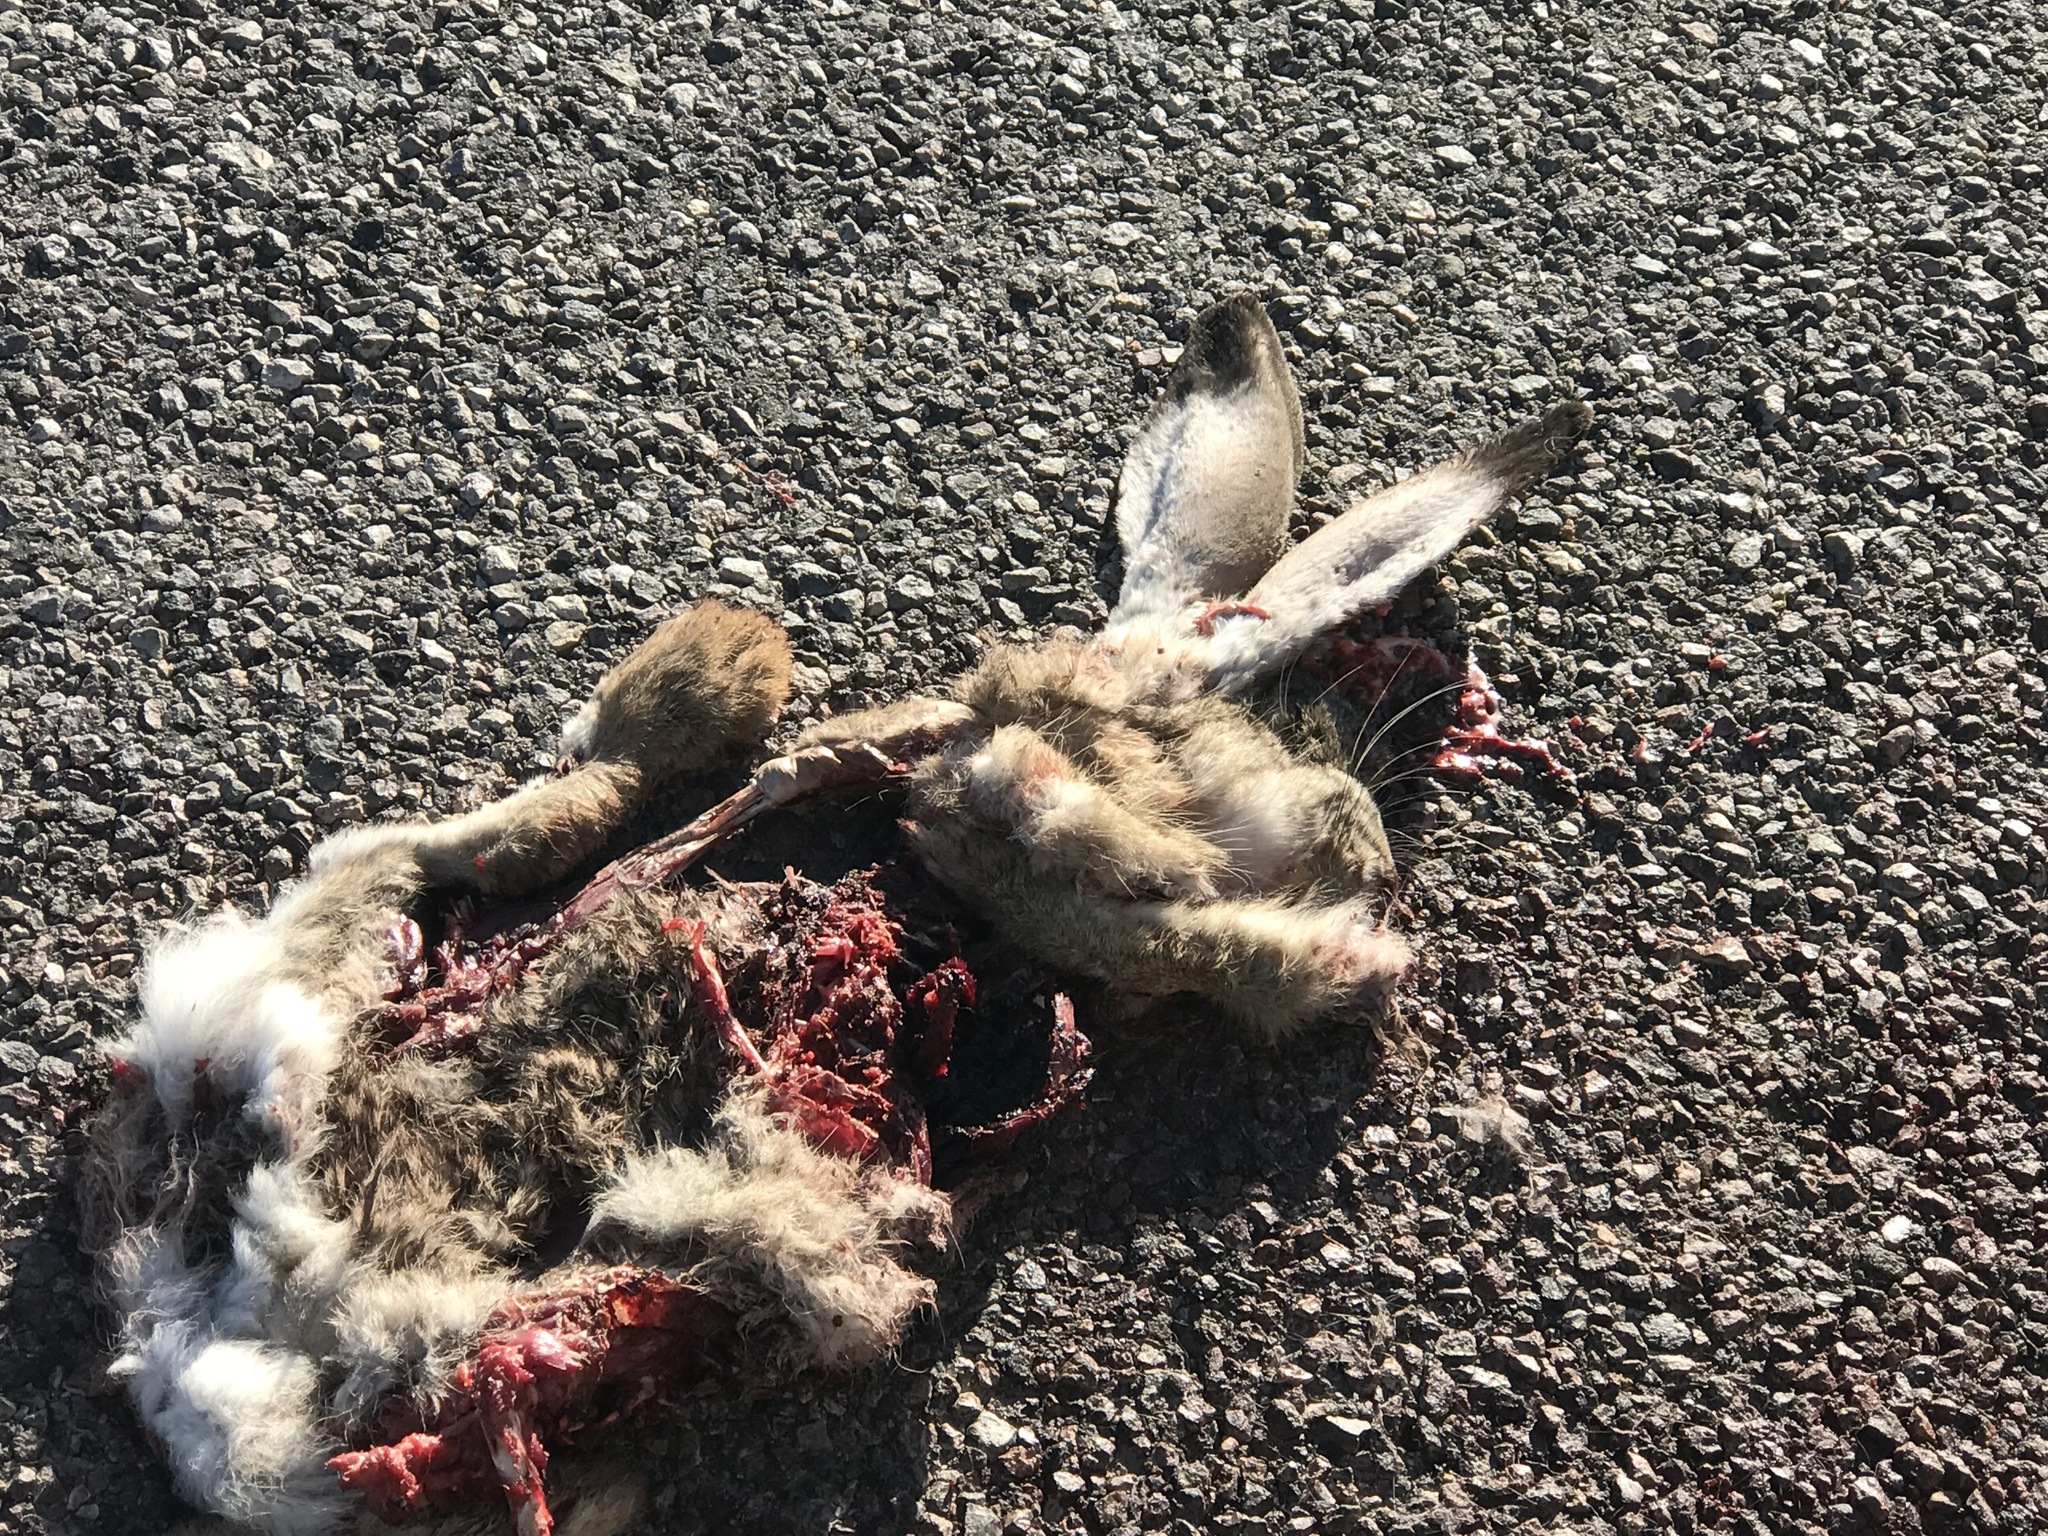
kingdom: Animalia
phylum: Chordata
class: Mammalia
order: Lagomorpha
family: Leporidae
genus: Lepus
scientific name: Lepus californicus
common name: Black-tailed jackrabbit
